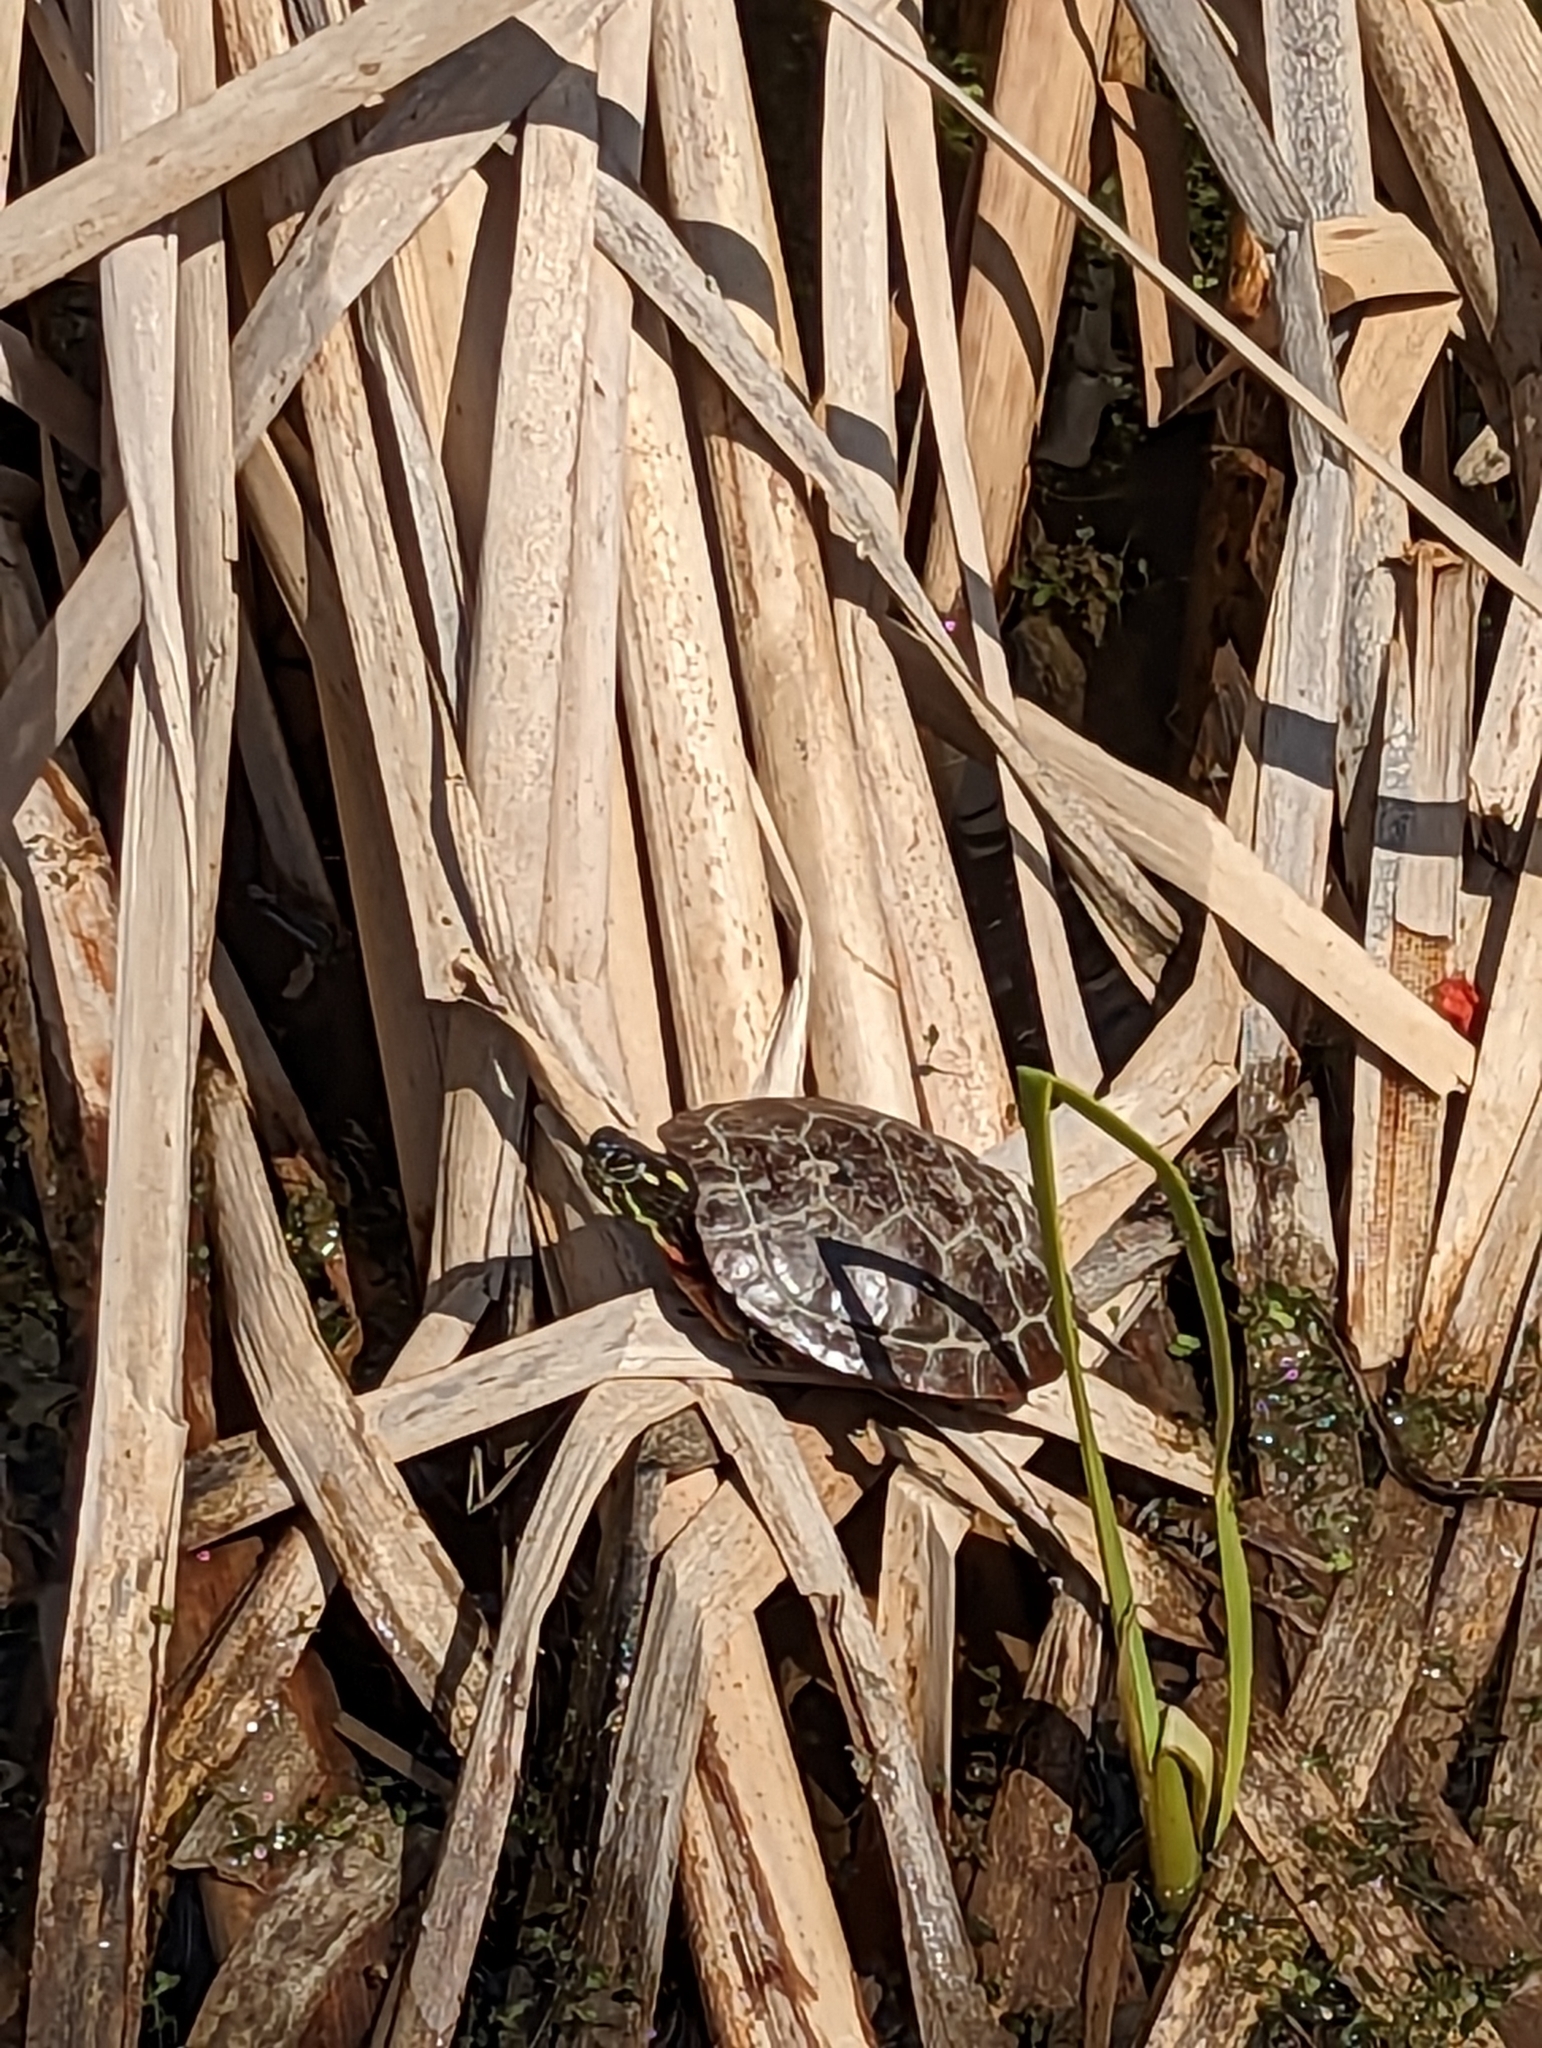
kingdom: Animalia
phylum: Chordata
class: Testudines
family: Emydidae
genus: Chrysemys
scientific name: Chrysemys picta
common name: Painted turtle
